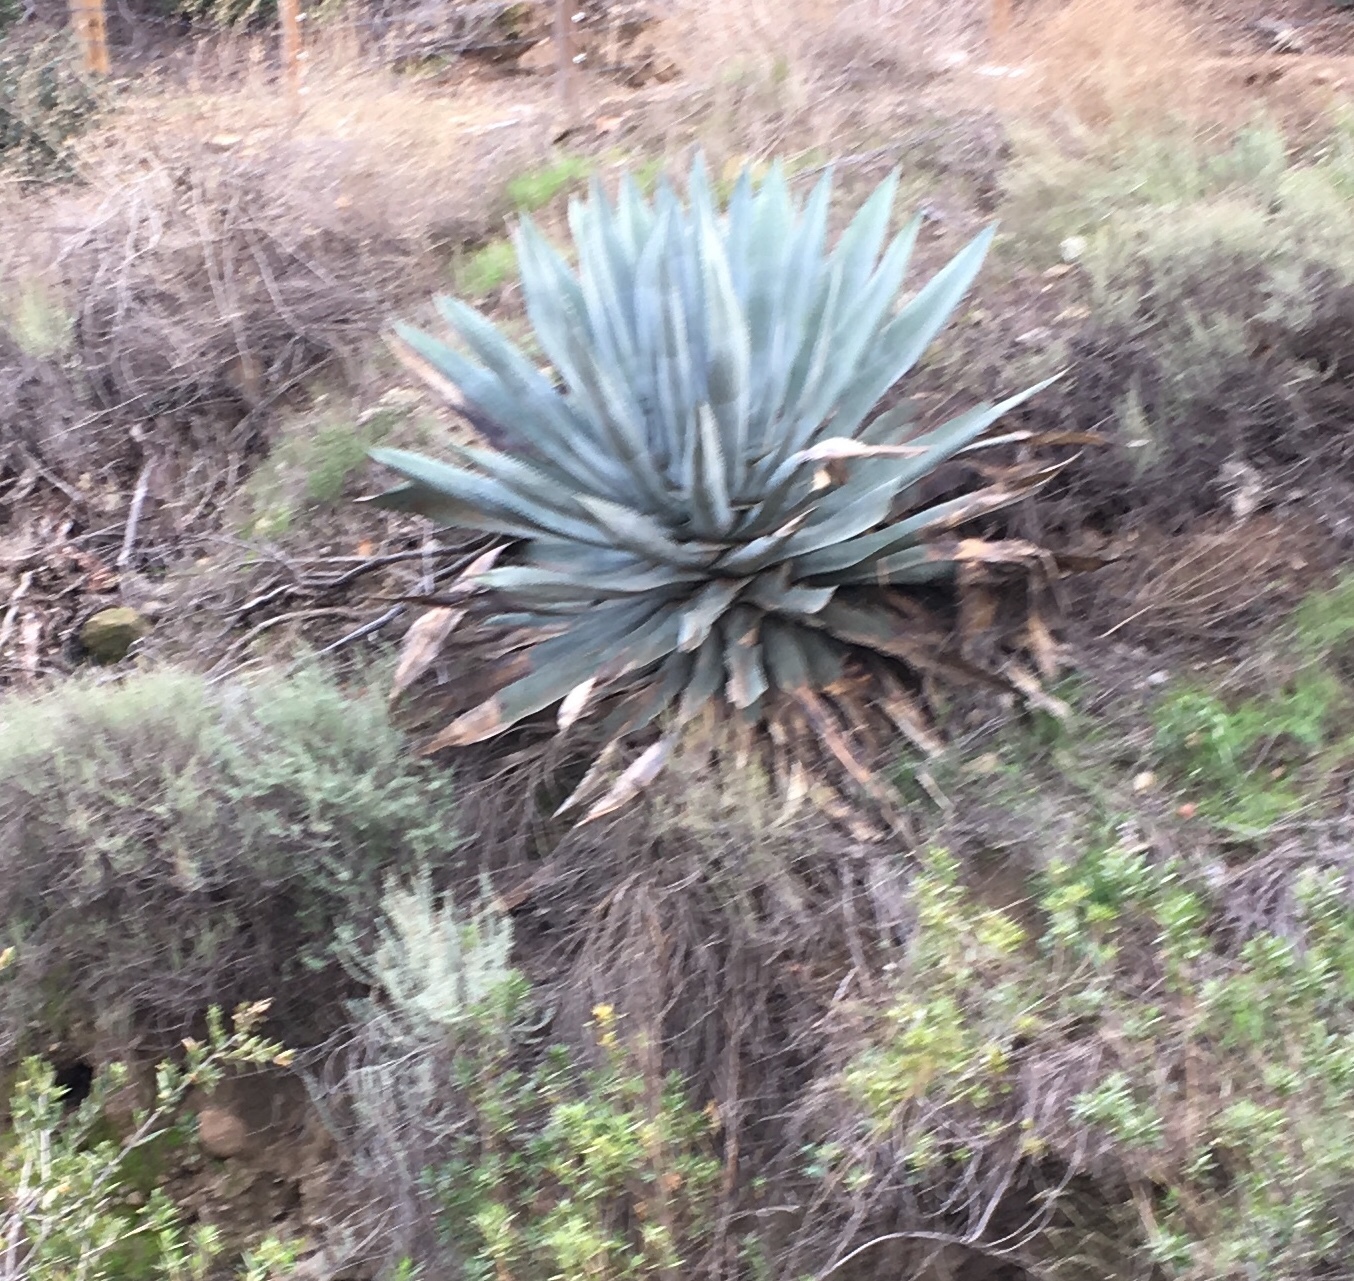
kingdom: Plantae
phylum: Tracheophyta
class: Liliopsida
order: Asparagales
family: Asparagaceae
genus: Agave
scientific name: Agave americana
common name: Centuryplant
